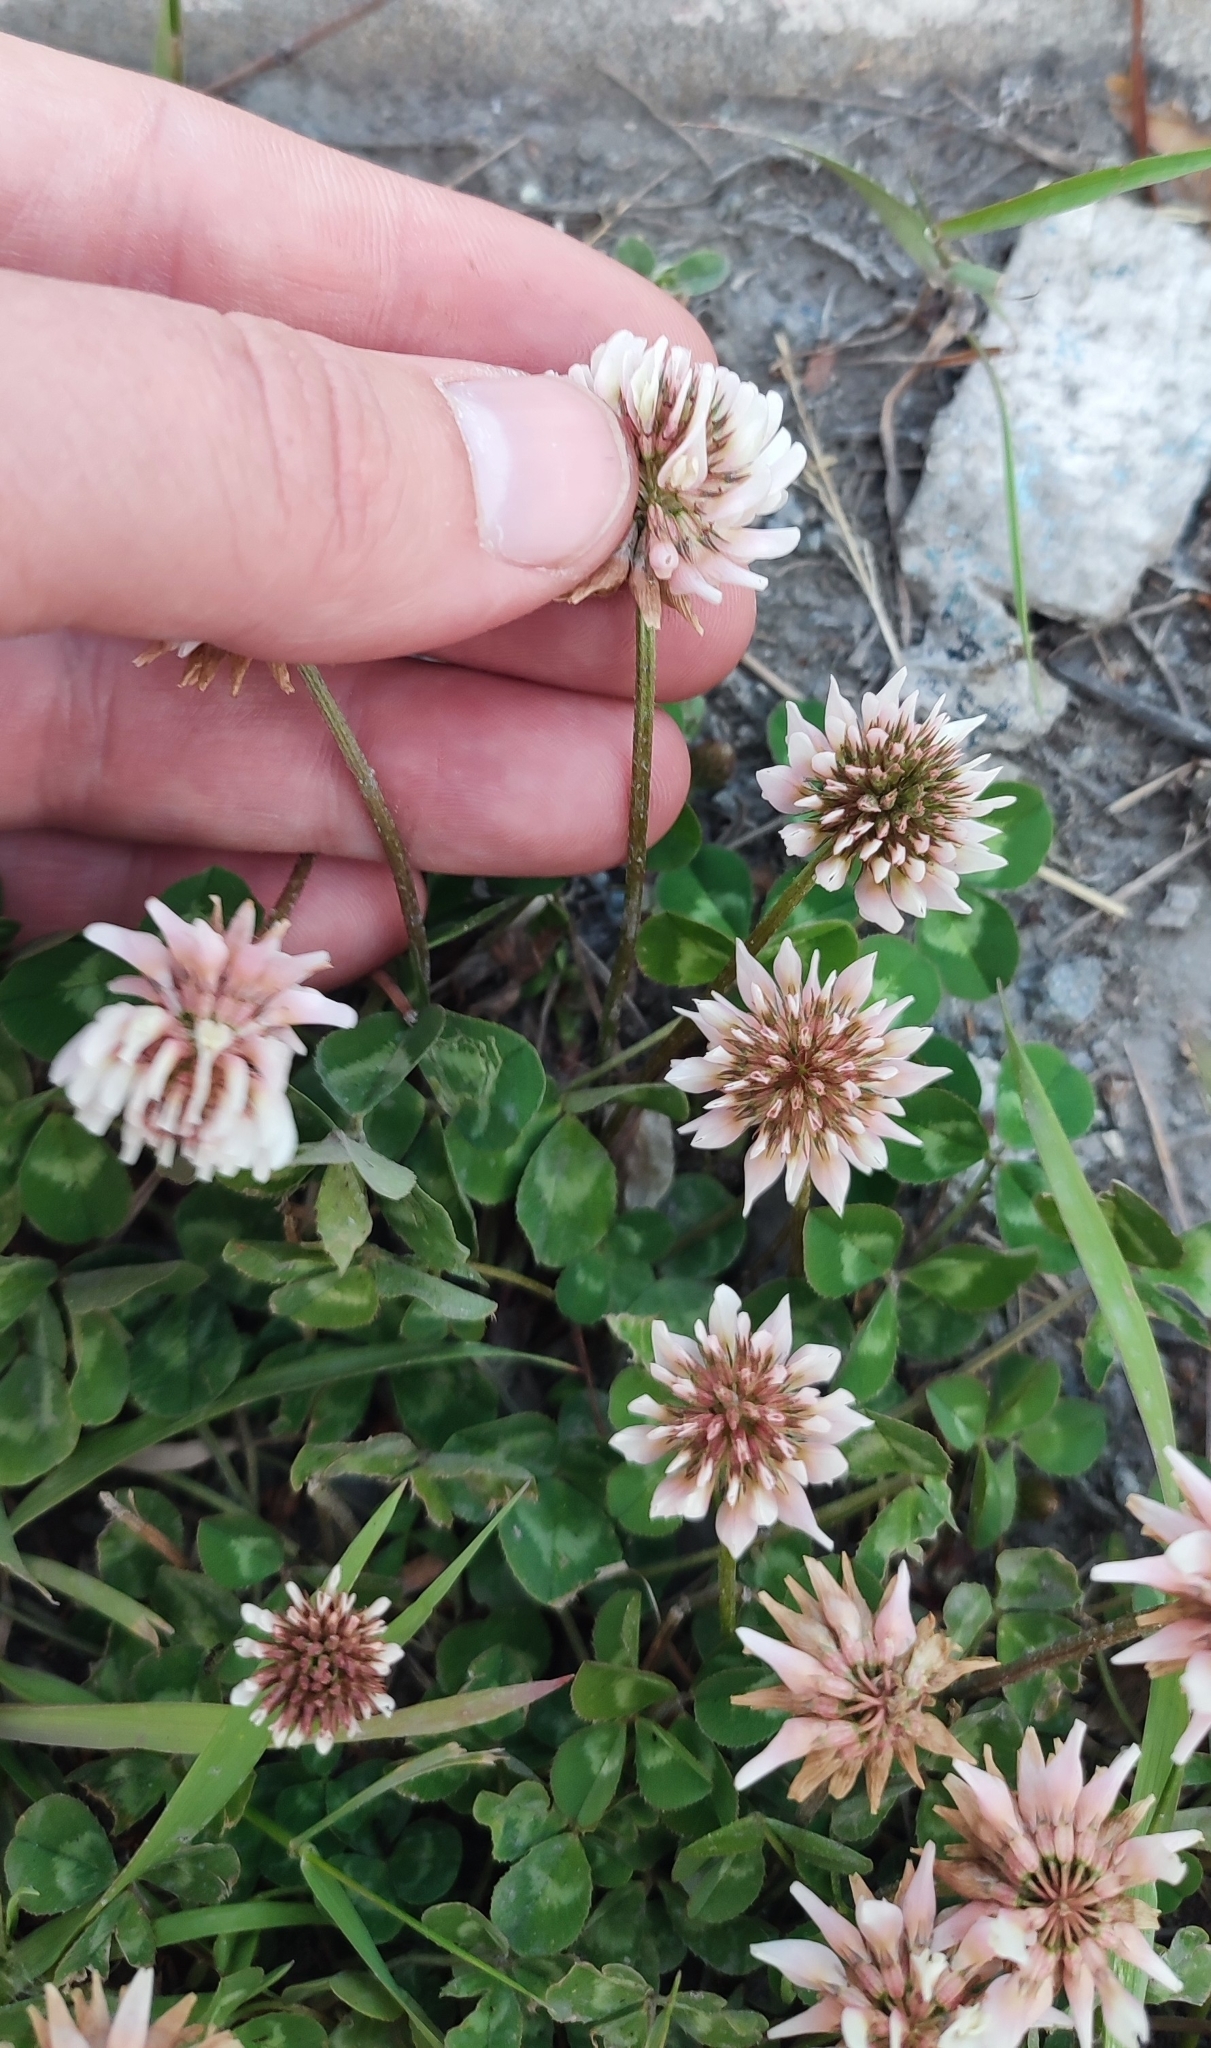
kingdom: Plantae
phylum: Tracheophyta
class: Magnoliopsida
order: Fabales
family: Fabaceae
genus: Trifolium
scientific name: Trifolium repens
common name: White clover
